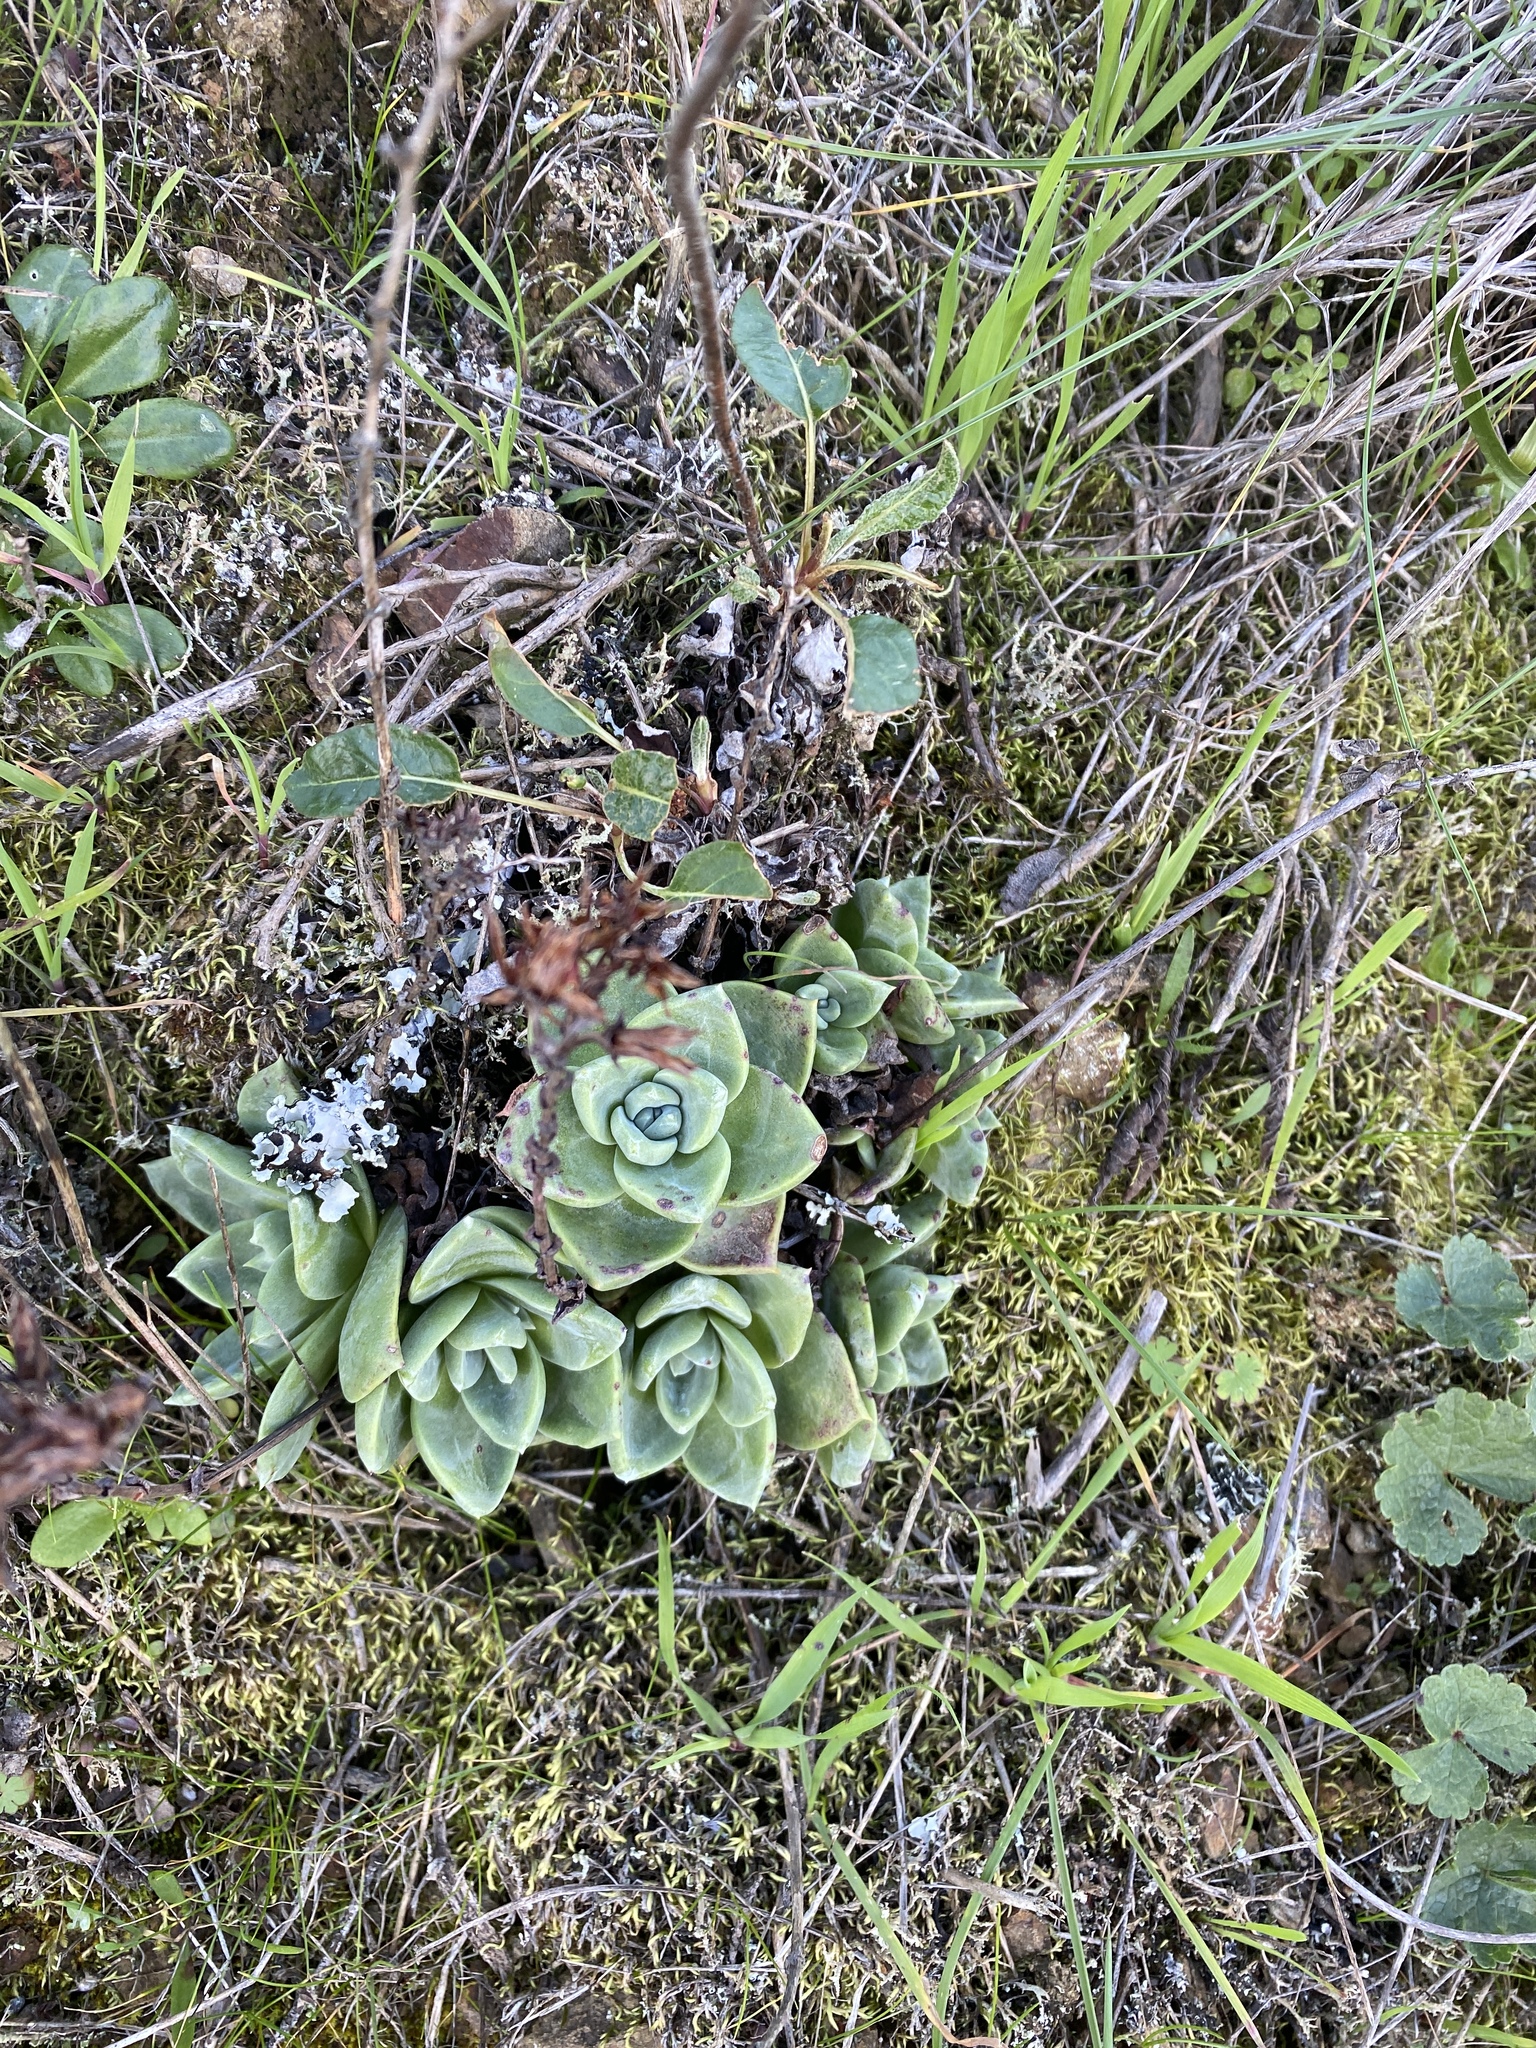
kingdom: Plantae
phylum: Tracheophyta
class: Magnoliopsida
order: Saxifragales
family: Crassulaceae
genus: Dudleya
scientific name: Dudleya farinosa
